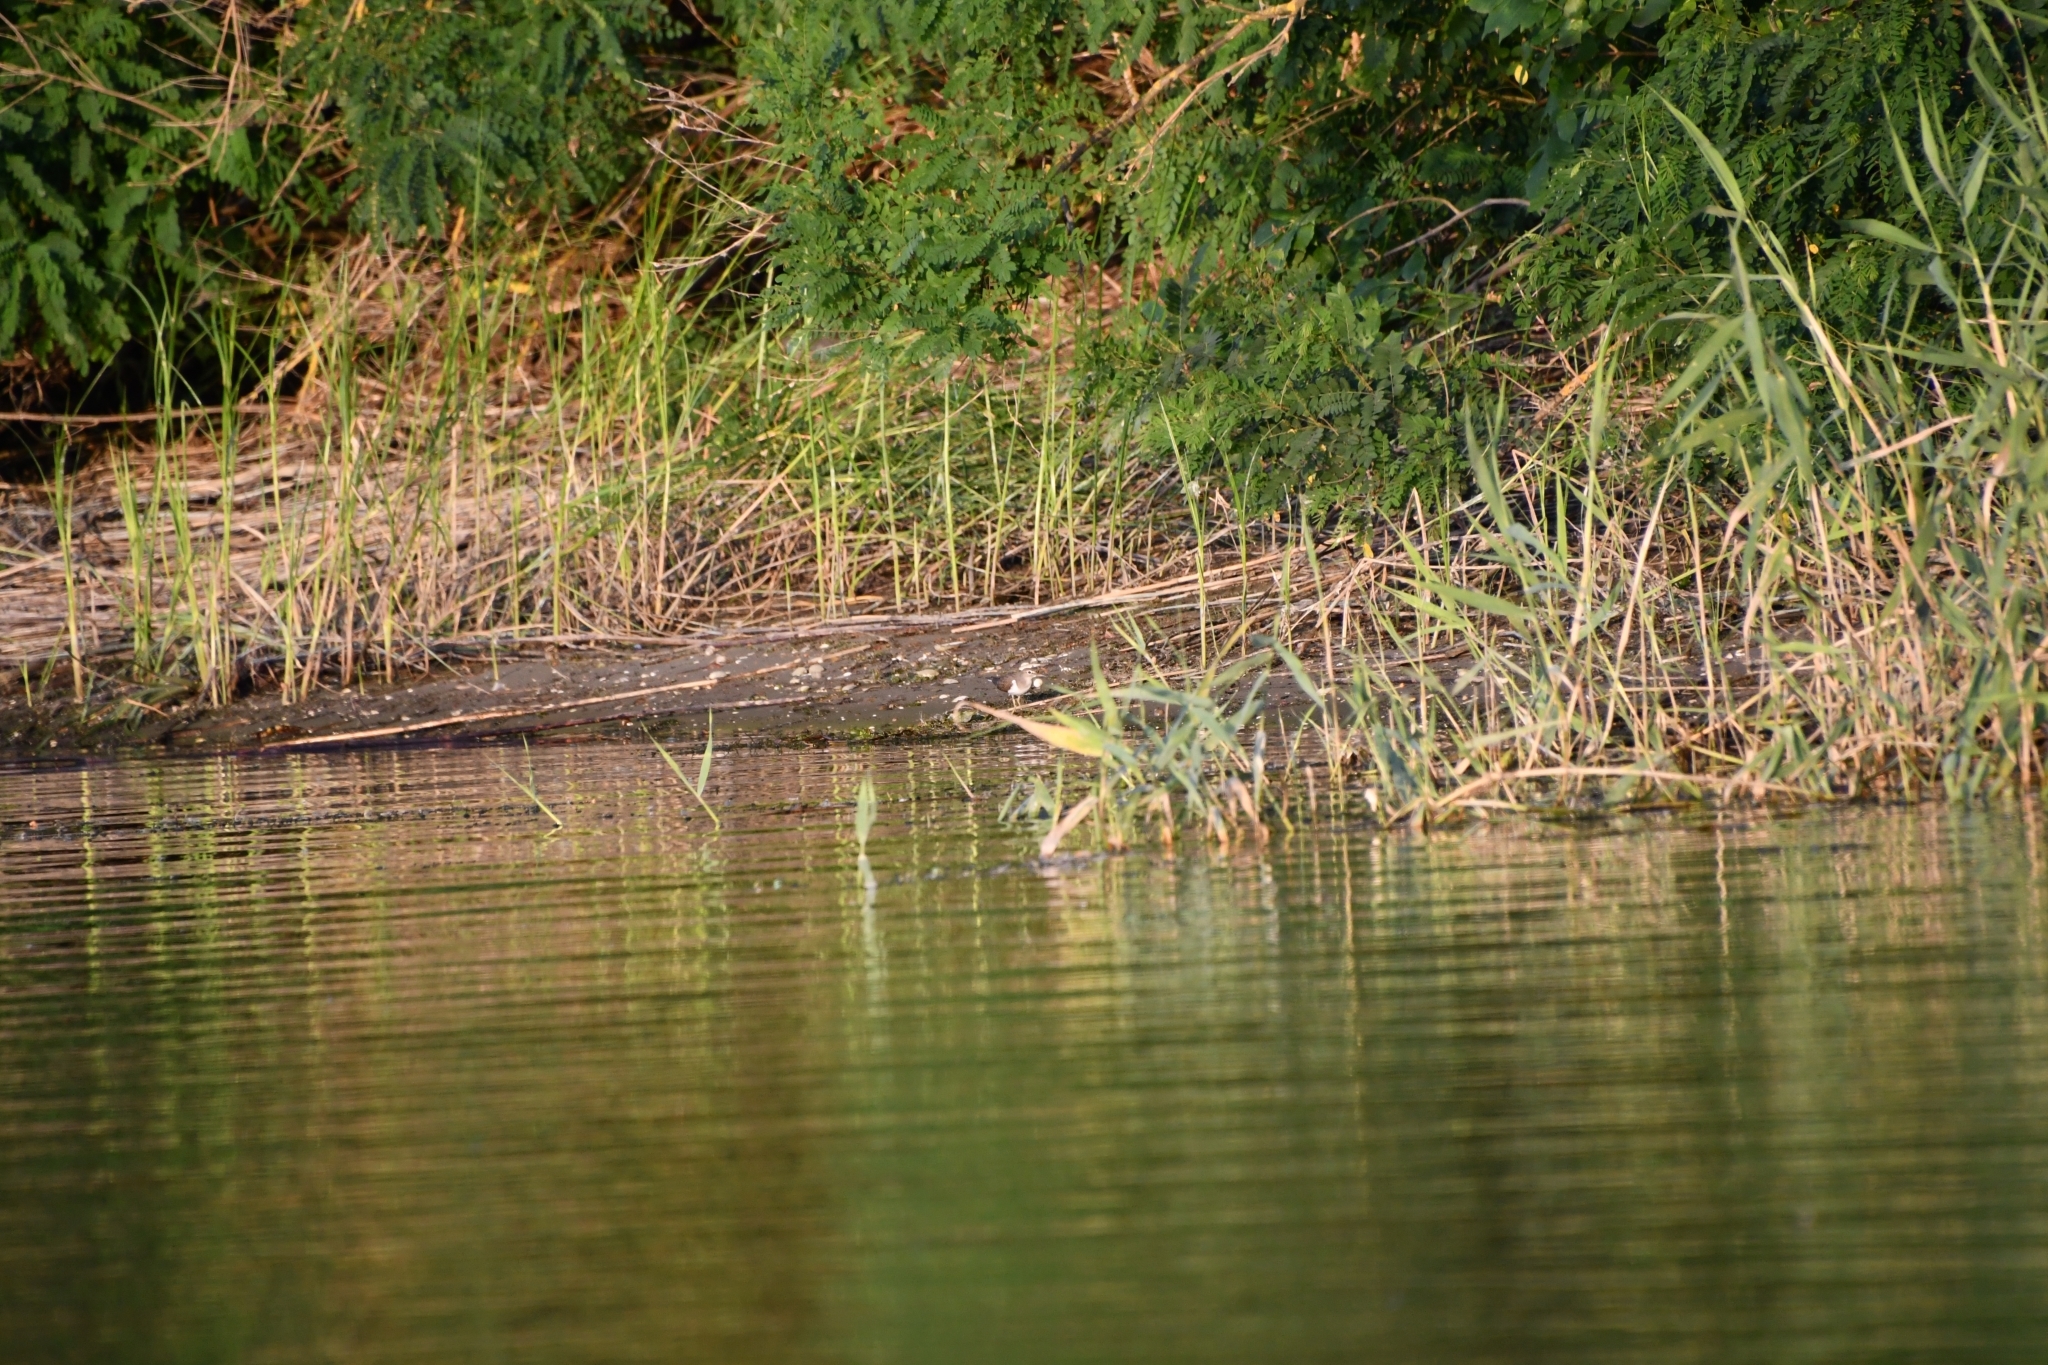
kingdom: Animalia
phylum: Chordata
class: Aves
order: Charadriiformes
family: Scolopacidae
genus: Actitis
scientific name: Actitis hypoleucos
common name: Common sandpiper
